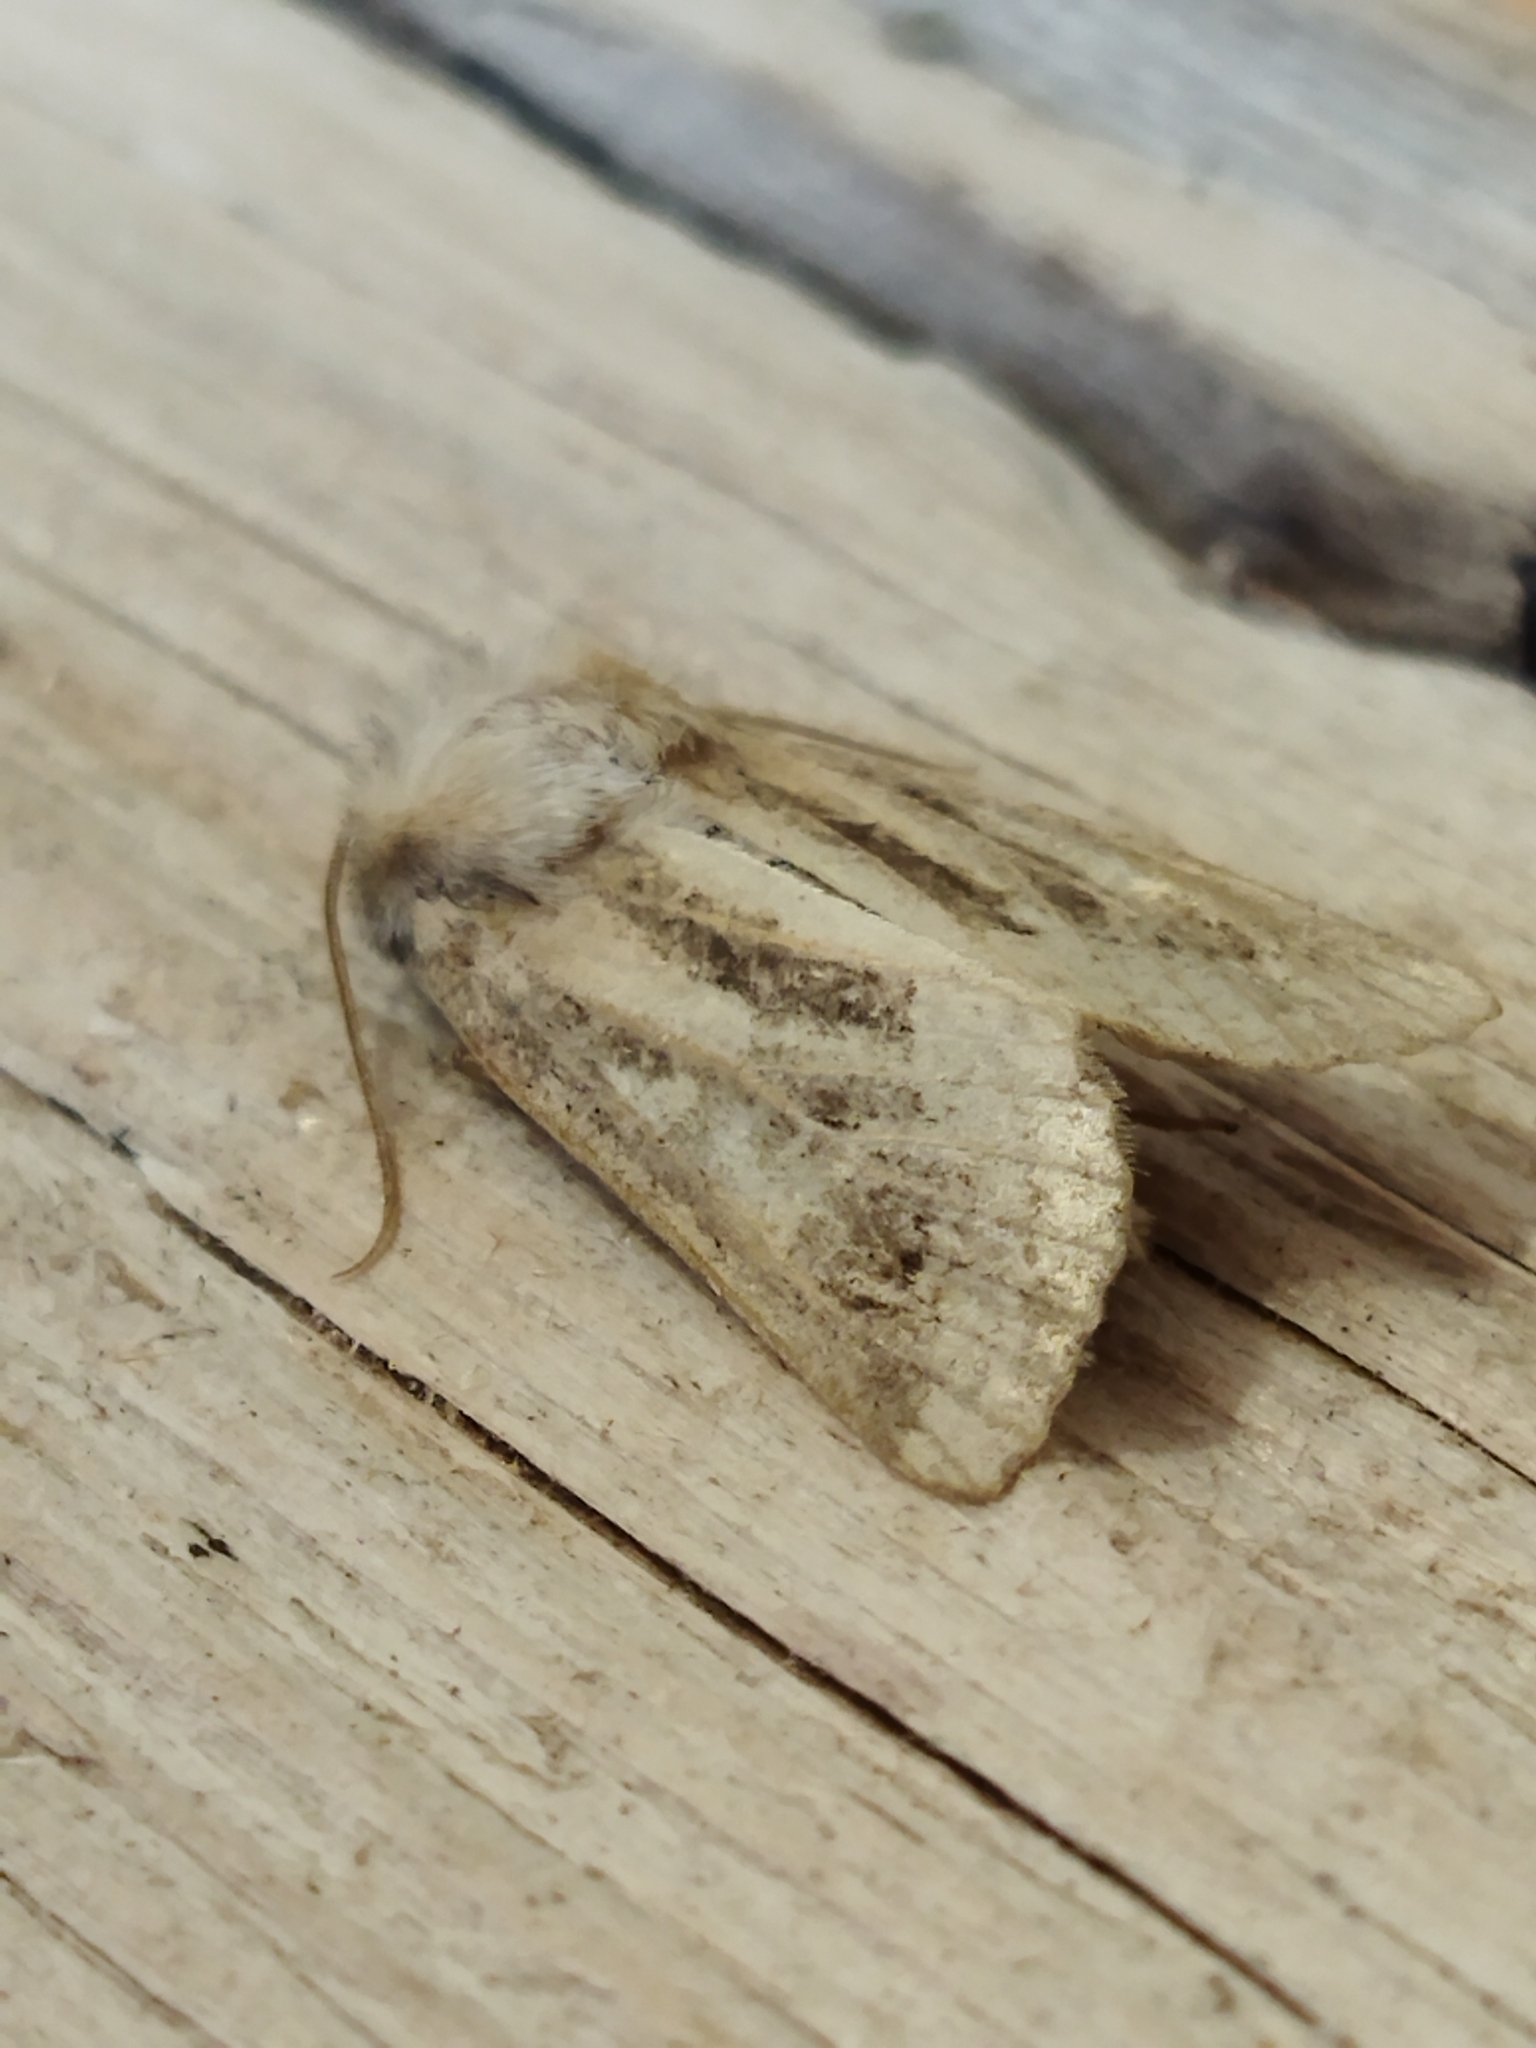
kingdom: Animalia
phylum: Arthropoda
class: Insecta
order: Lepidoptera
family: Noctuidae
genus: Luperina
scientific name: Luperina dumerilii
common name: Dumeril's rustic
